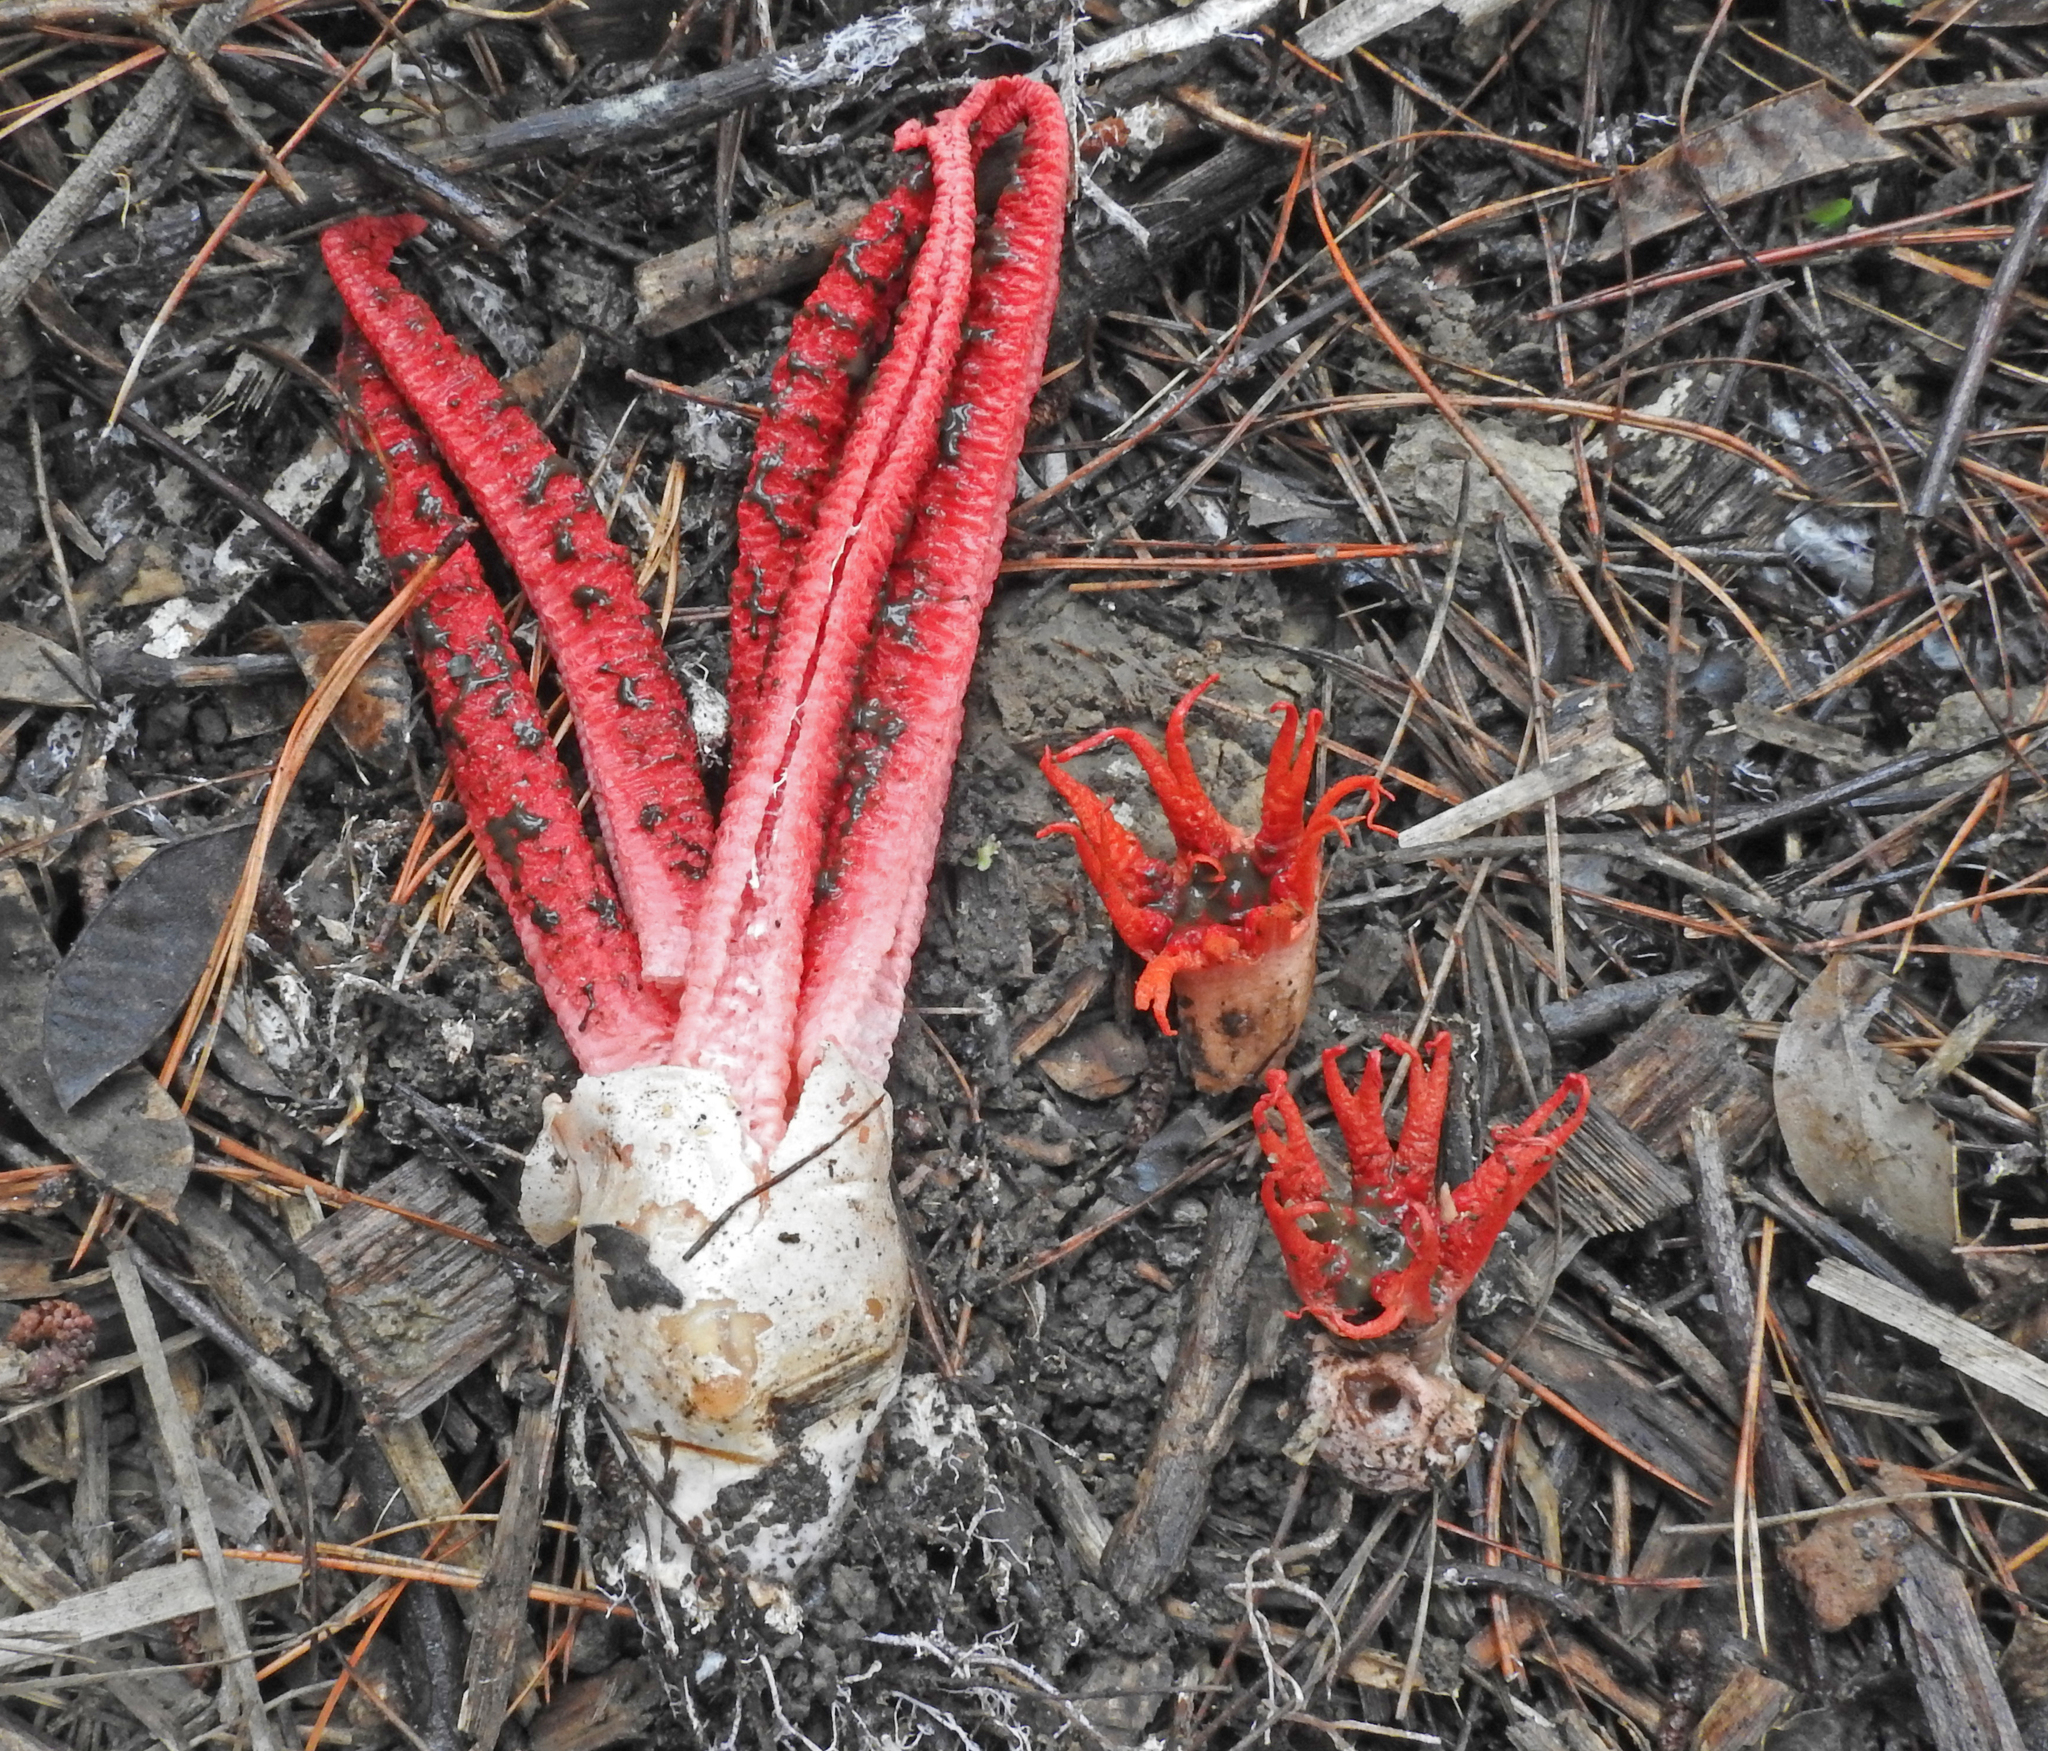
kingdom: Fungi
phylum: Basidiomycota
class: Agaricomycetes
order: Phallales
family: Phallaceae
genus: Clathrus
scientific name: Clathrus archeri
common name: Devil's fingers
